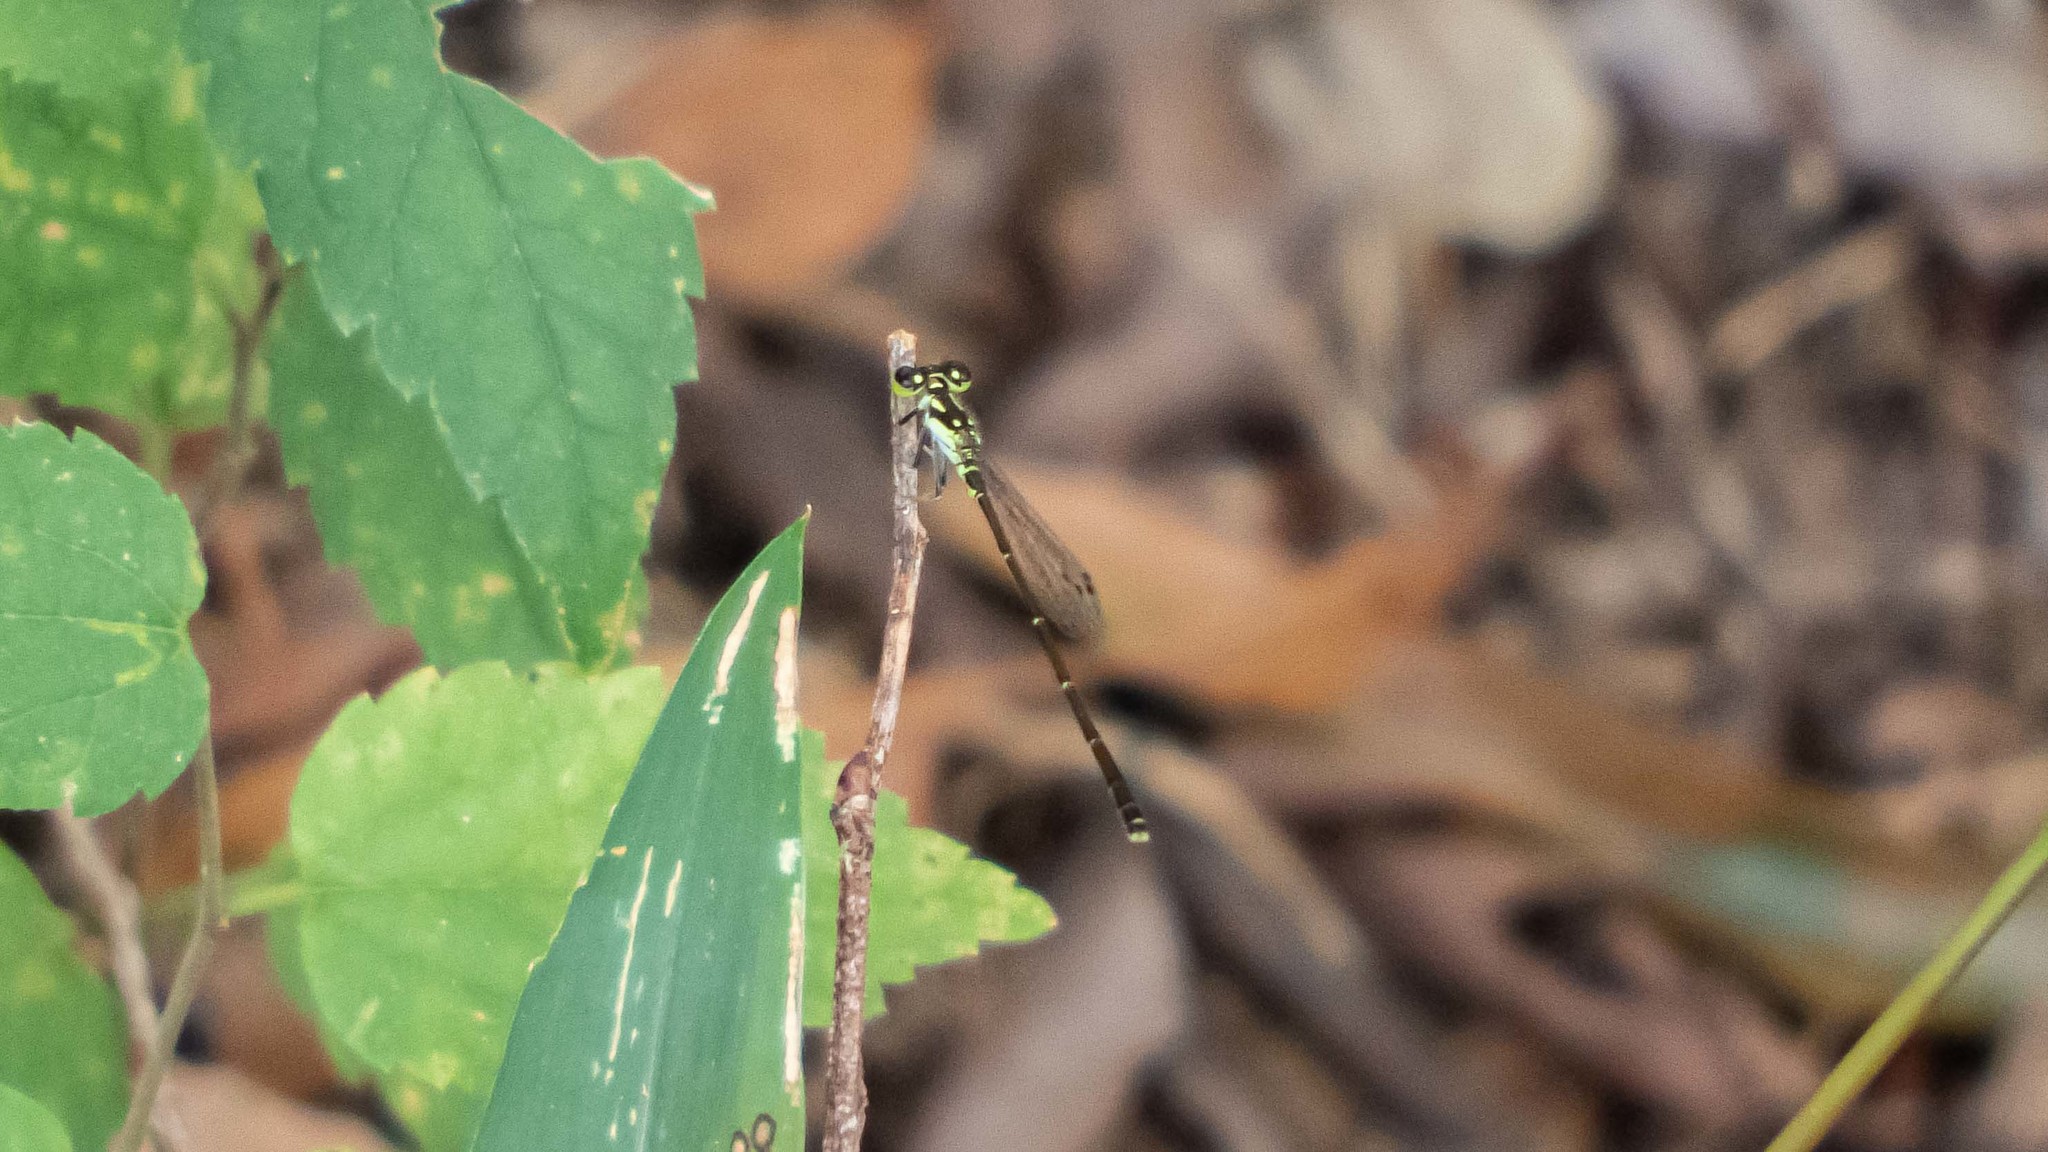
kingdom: Animalia
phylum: Arthropoda
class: Insecta
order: Odonata
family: Coenagrionidae
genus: Ischnura
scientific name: Ischnura posita
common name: Fragile forktail
